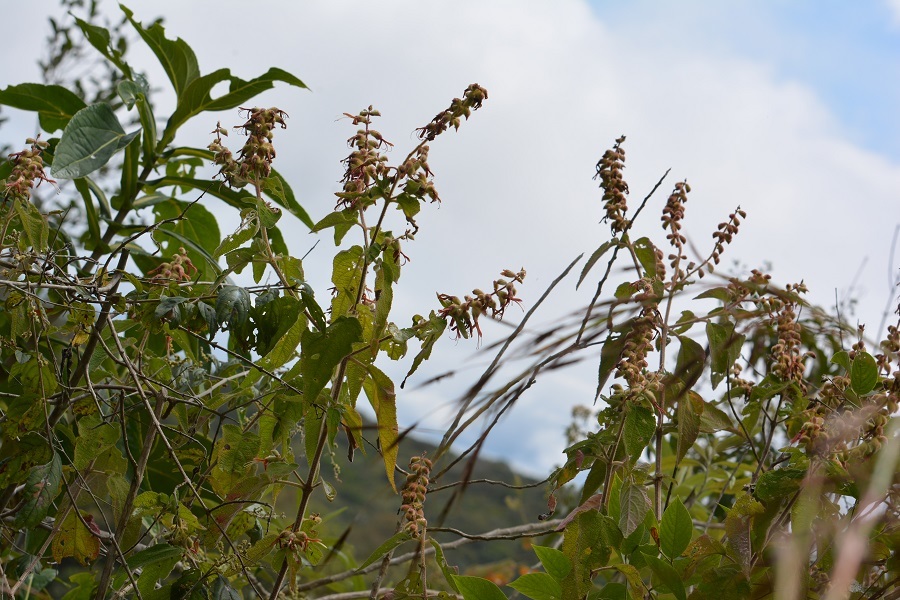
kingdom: Plantae
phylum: Tracheophyta
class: Magnoliopsida
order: Lamiales
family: Lamiaceae
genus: Salvia
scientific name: Salvia lasiantha
